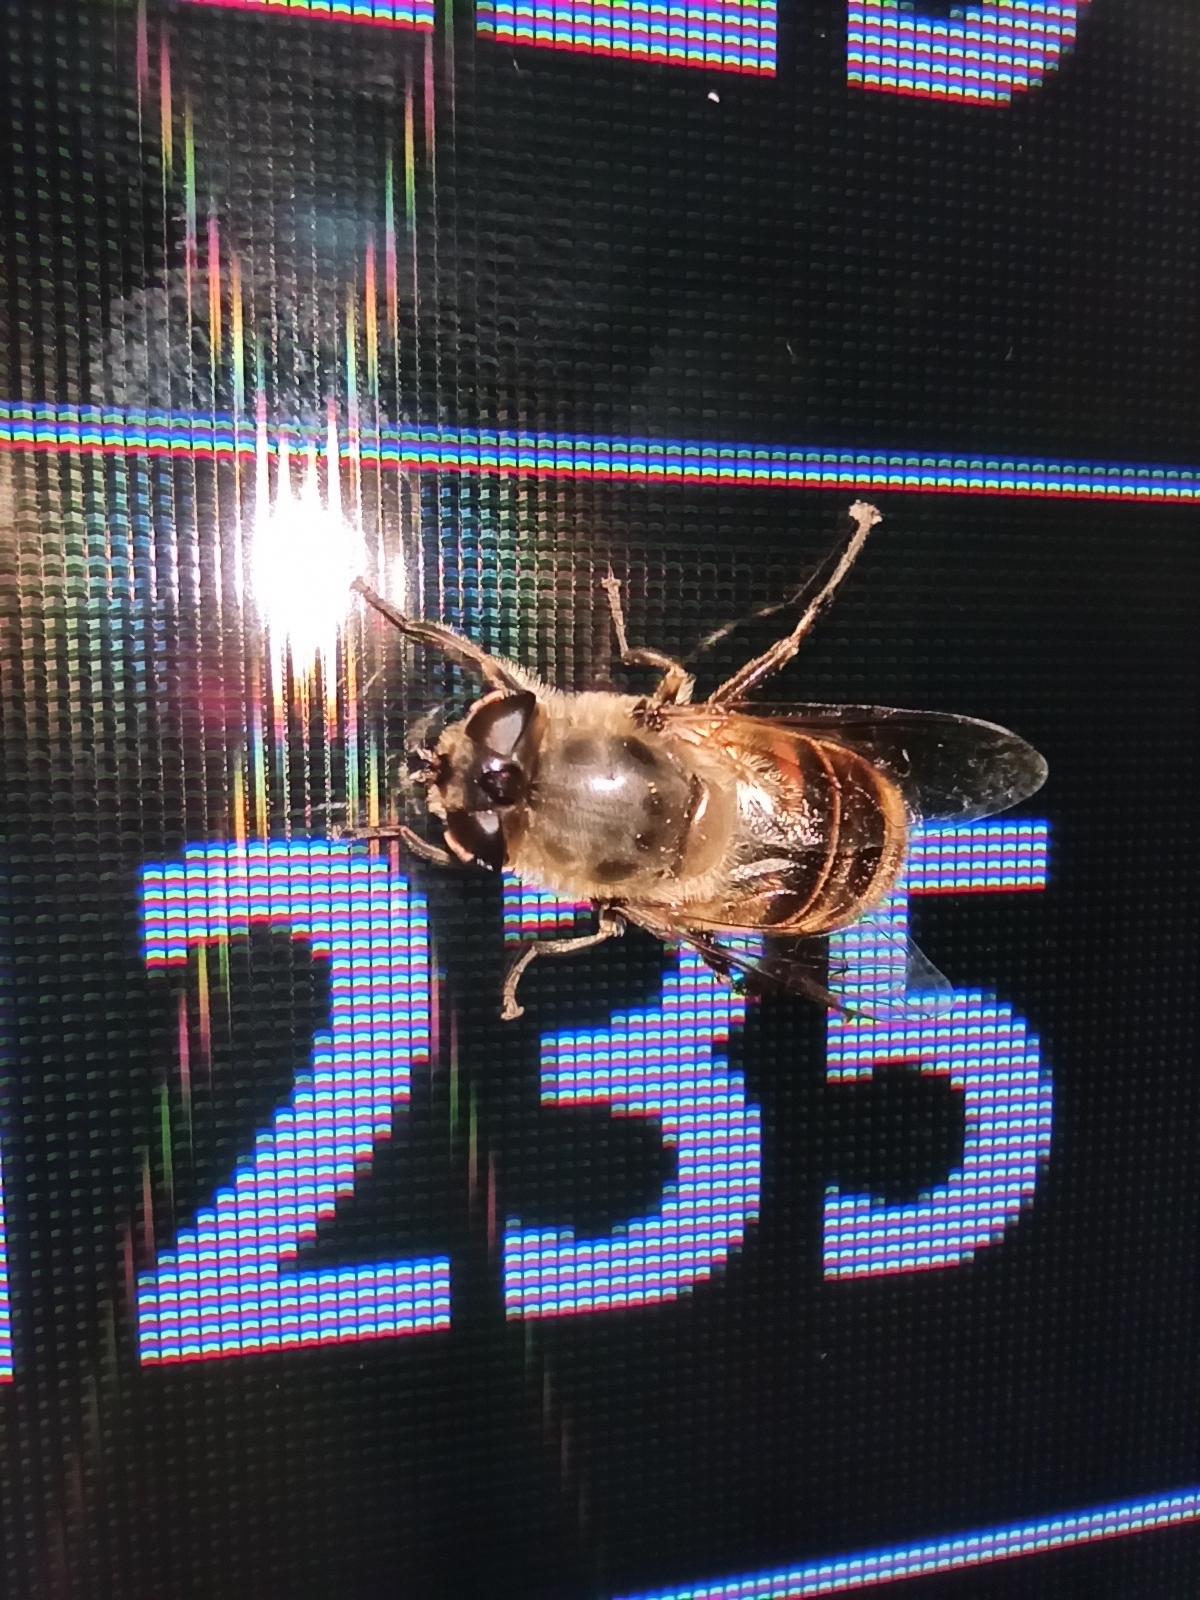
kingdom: Animalia
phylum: Arthropoda
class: Insecta
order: Diptera
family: Syrphidae
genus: Eristalis
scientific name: Eristalis tenax
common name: Drone fly
